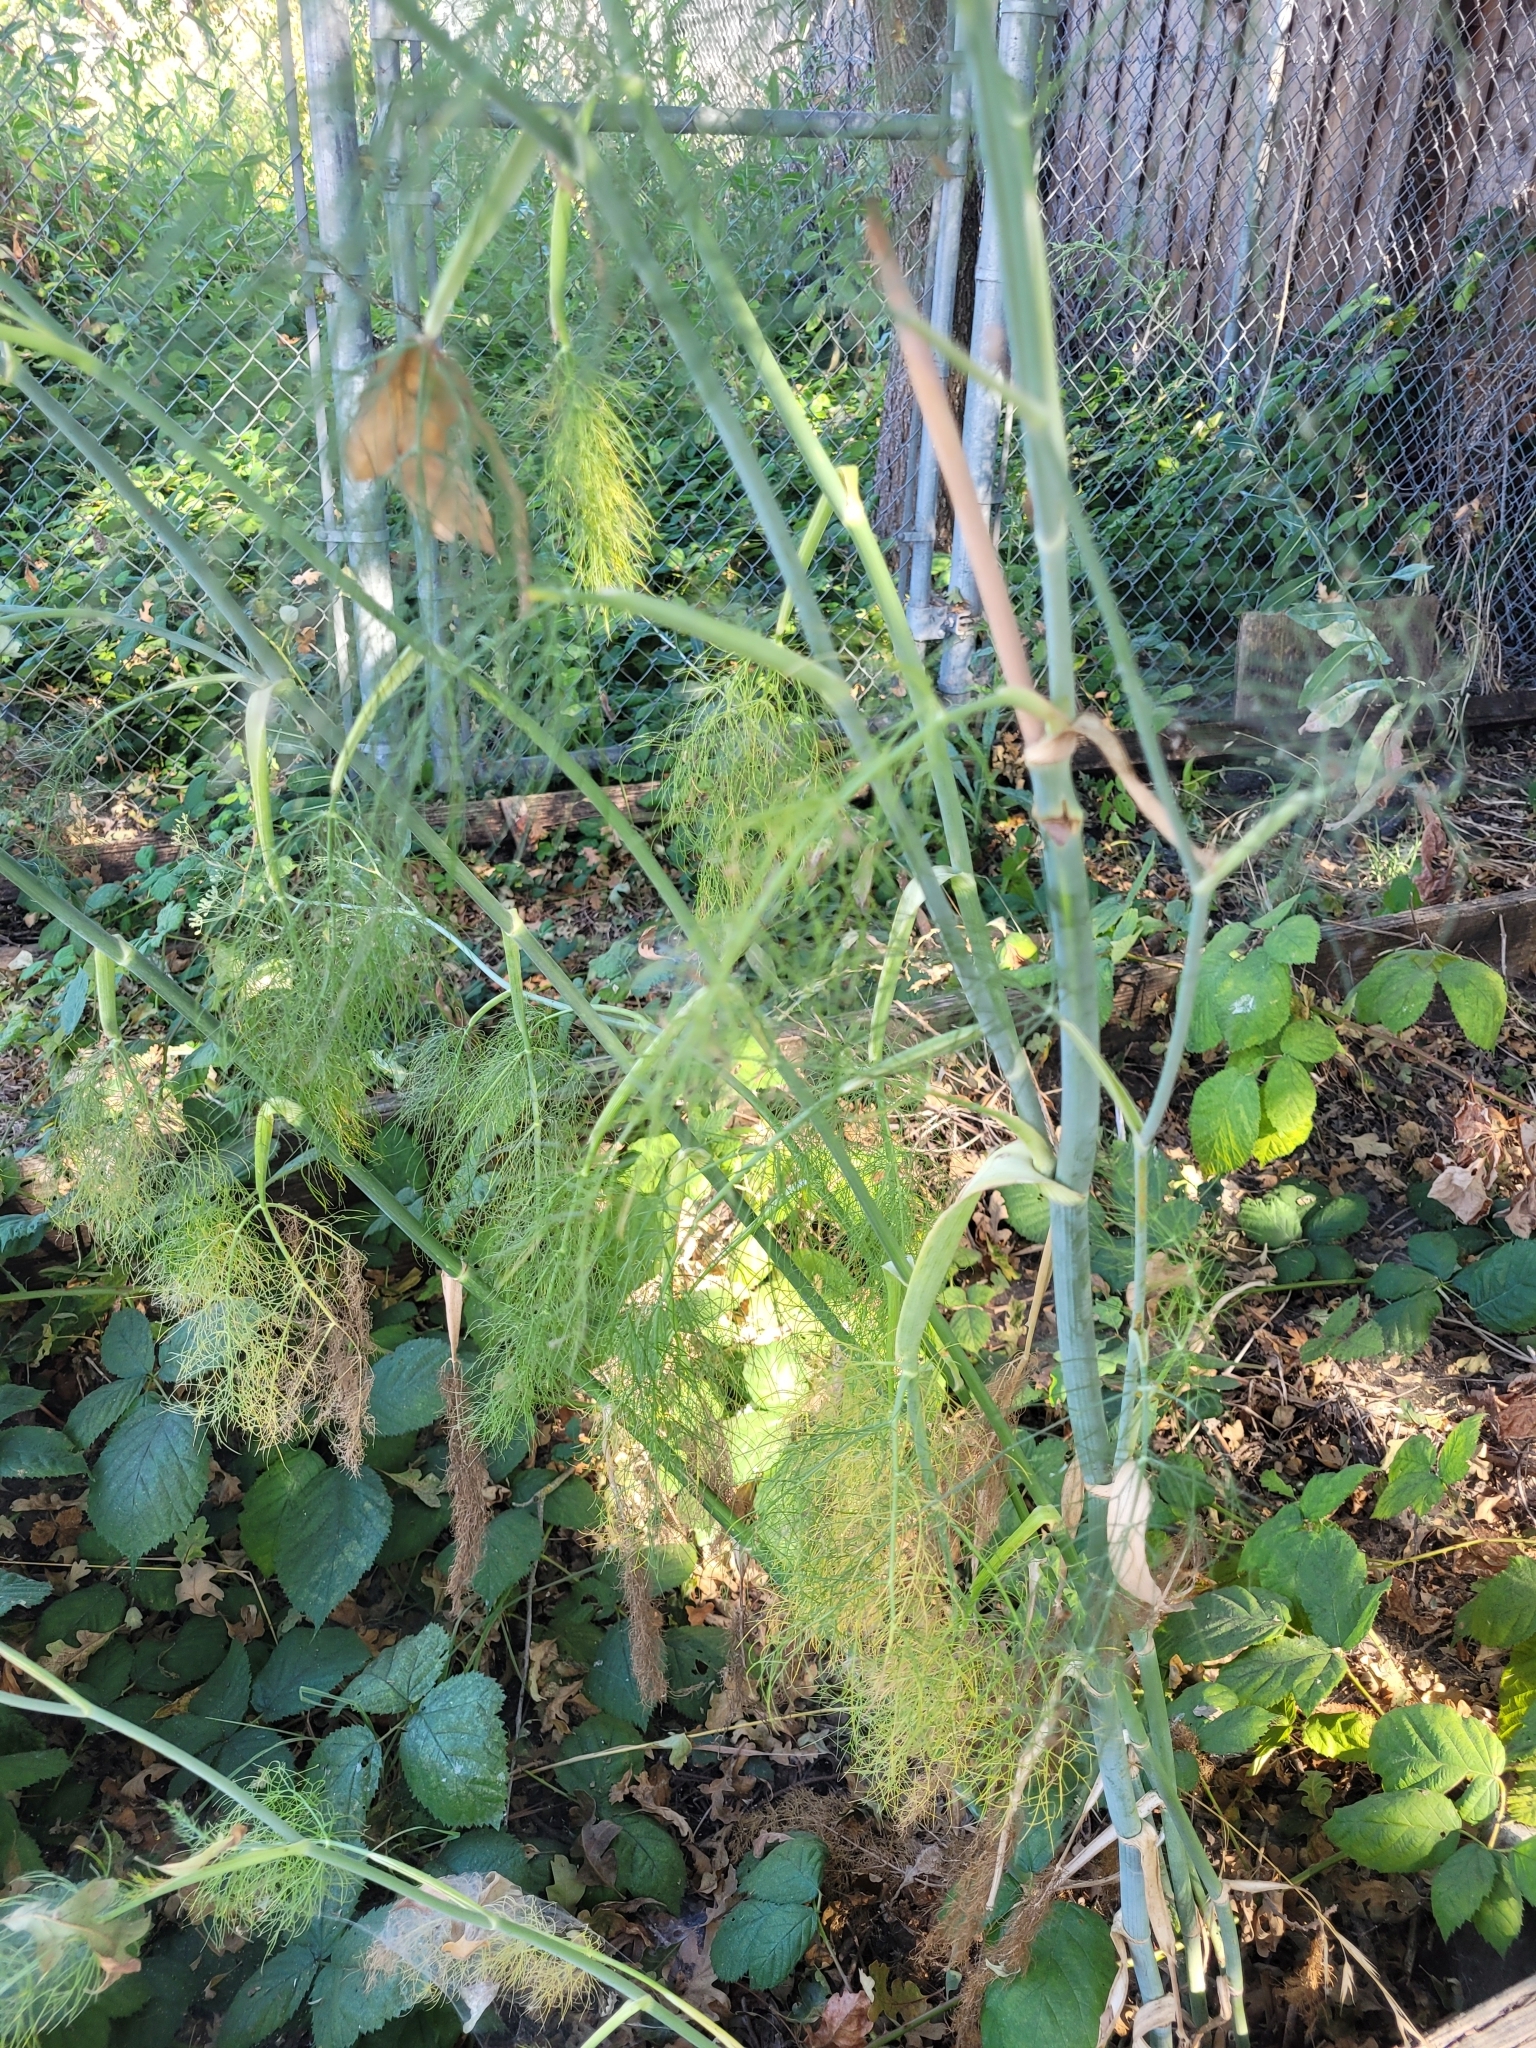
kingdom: Plantae
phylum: Tracheophyta
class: Magnoliopsida
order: Apiales
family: Apiaceae
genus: Foeniculum
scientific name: Foeniculum vulgare
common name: Fennel
